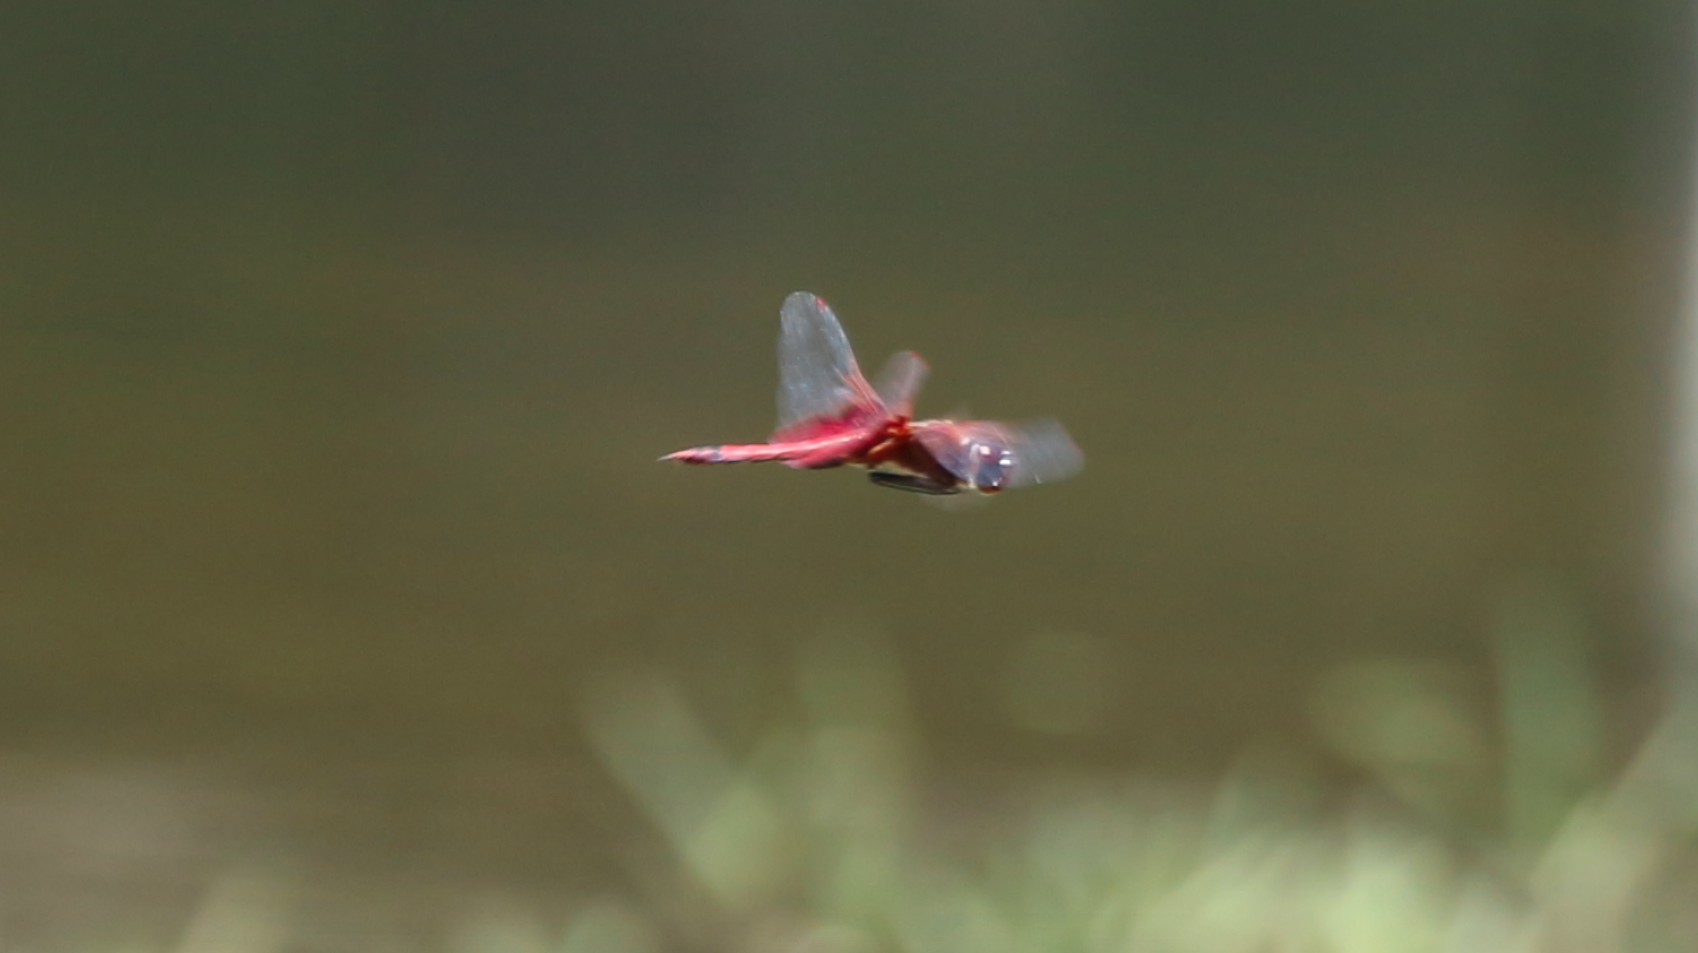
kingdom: Animalia
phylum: Arthropoda
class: Insecta
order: Odonata
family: Libellulidae
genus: Tramea
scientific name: Tramea carolina
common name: Carolina saddlebags
